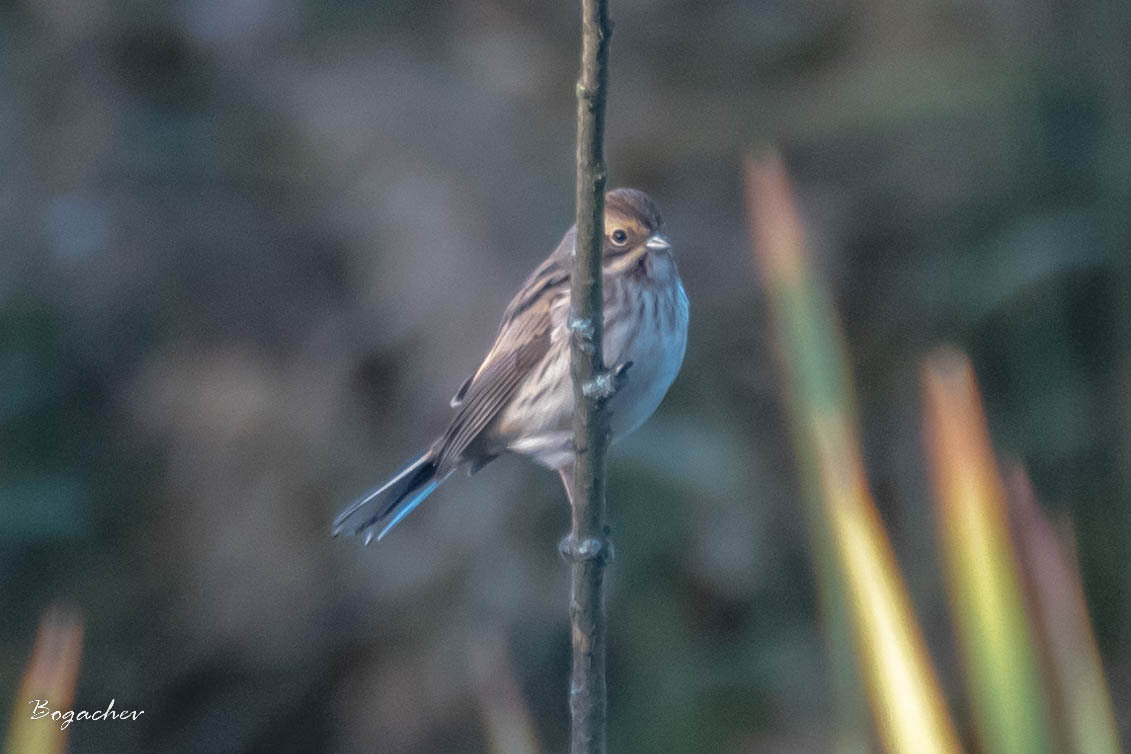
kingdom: Animalia
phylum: Chordata
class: Aves
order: Passeriformes
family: Emberizidae
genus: Emberiza
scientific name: Emberiza schoeniclus
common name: Reed bunting
